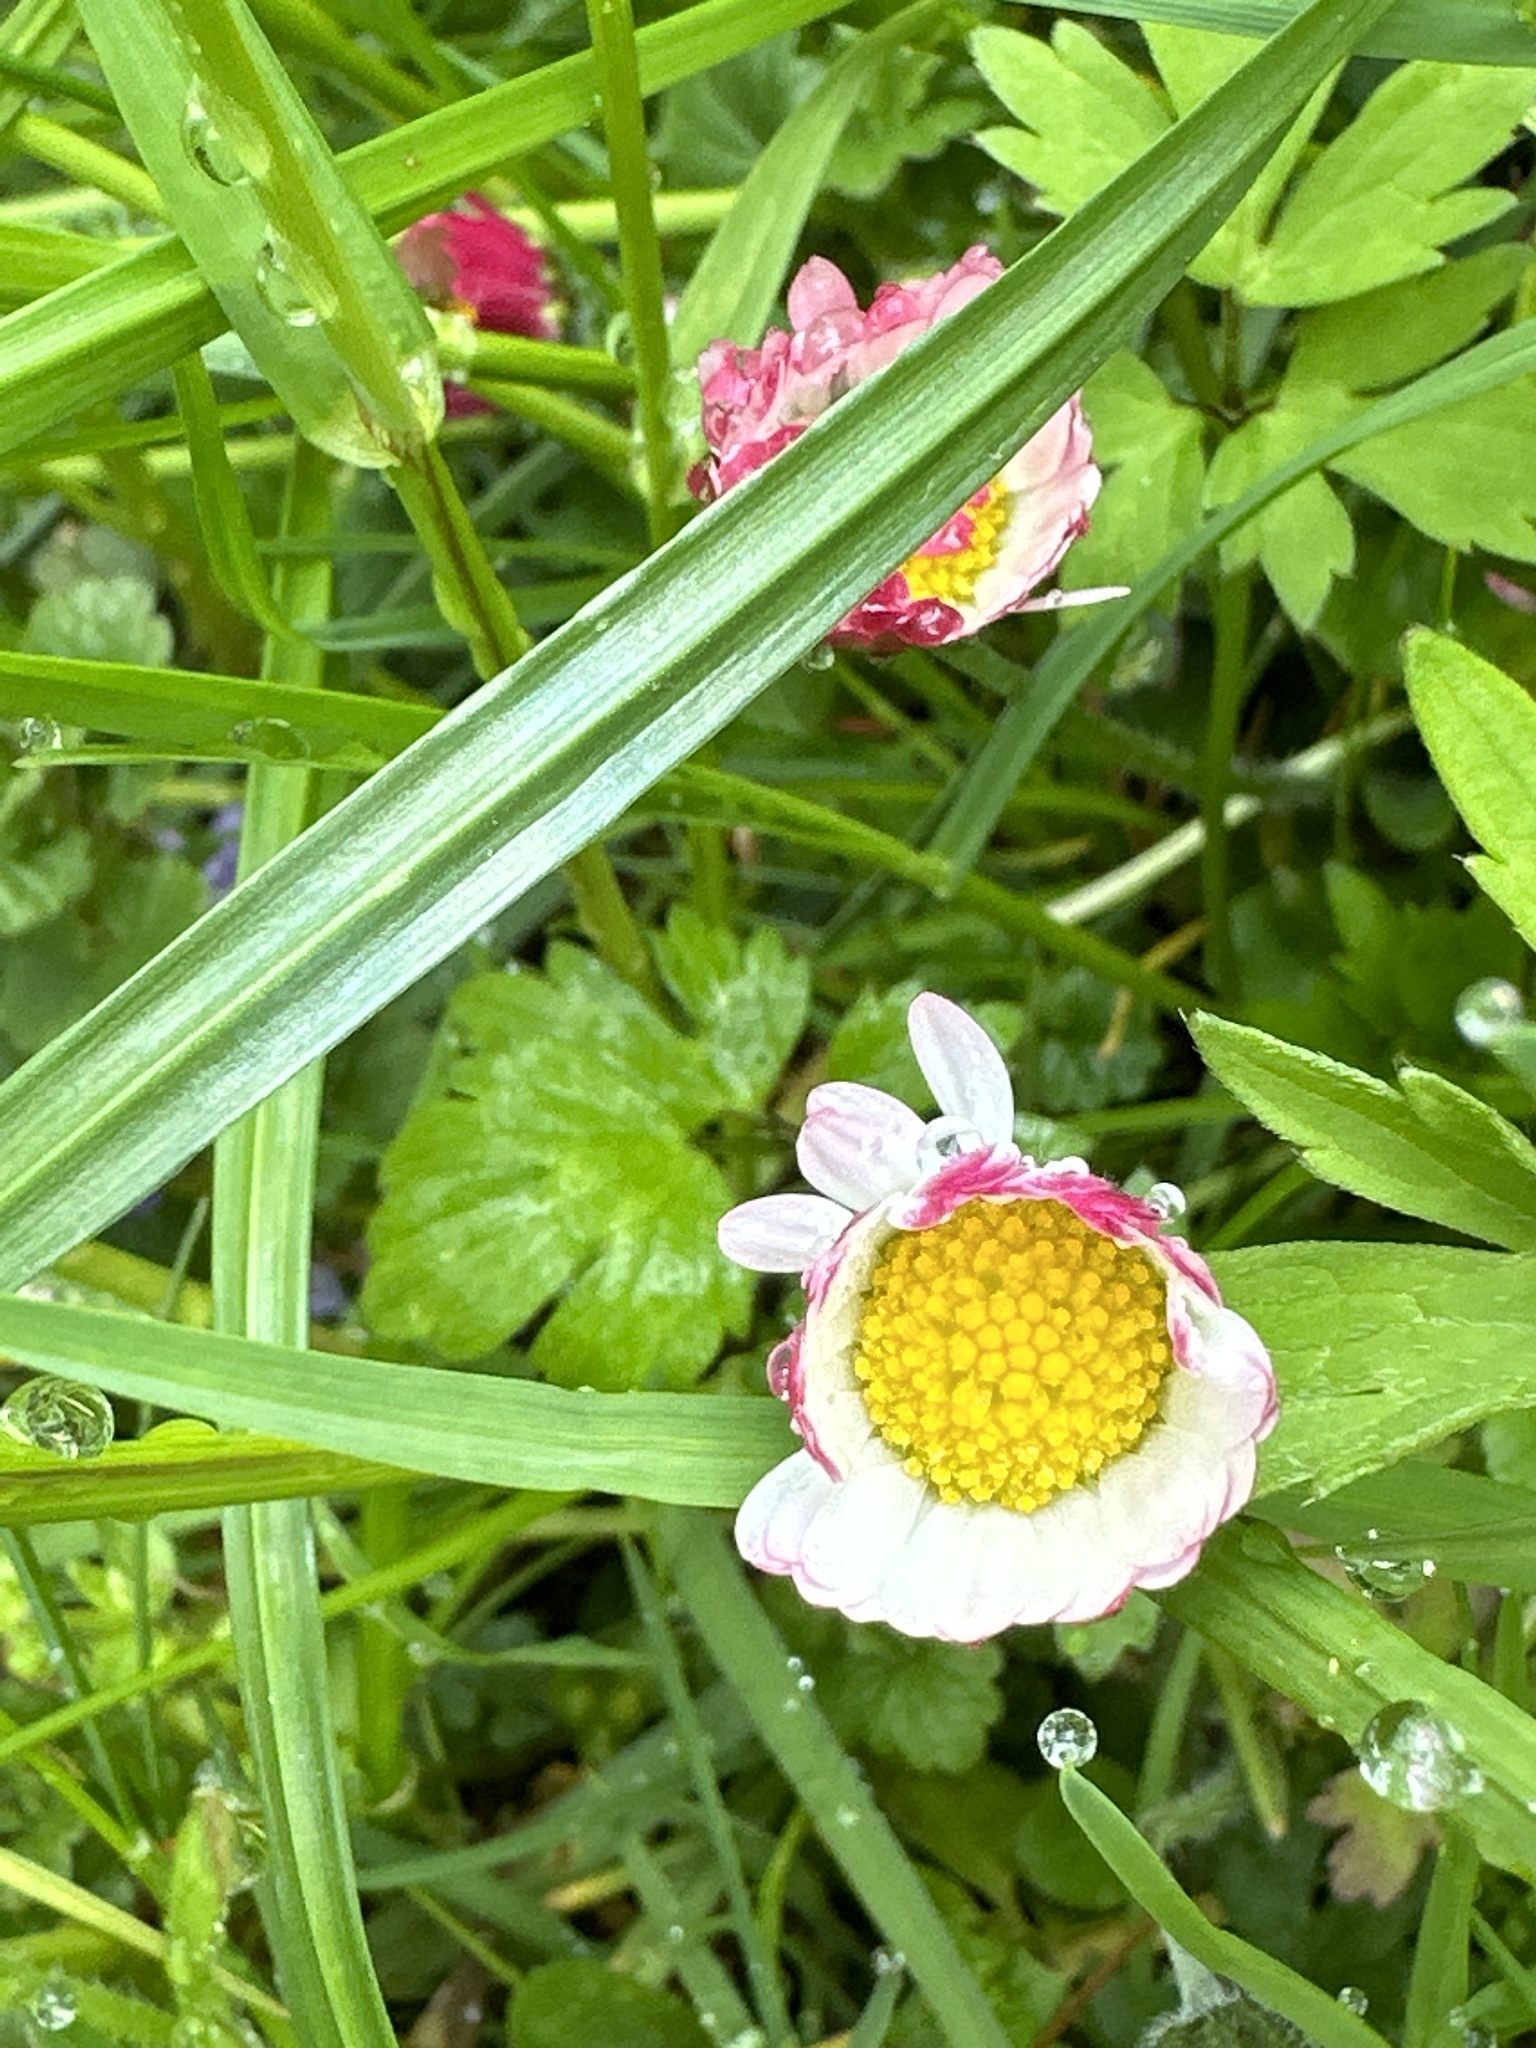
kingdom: Plantae
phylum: Tracheophyta
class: Magnoliopsida
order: Asterales
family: Asteraceae
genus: Bellis
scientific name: Bellis perennis
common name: Lawndaisy
